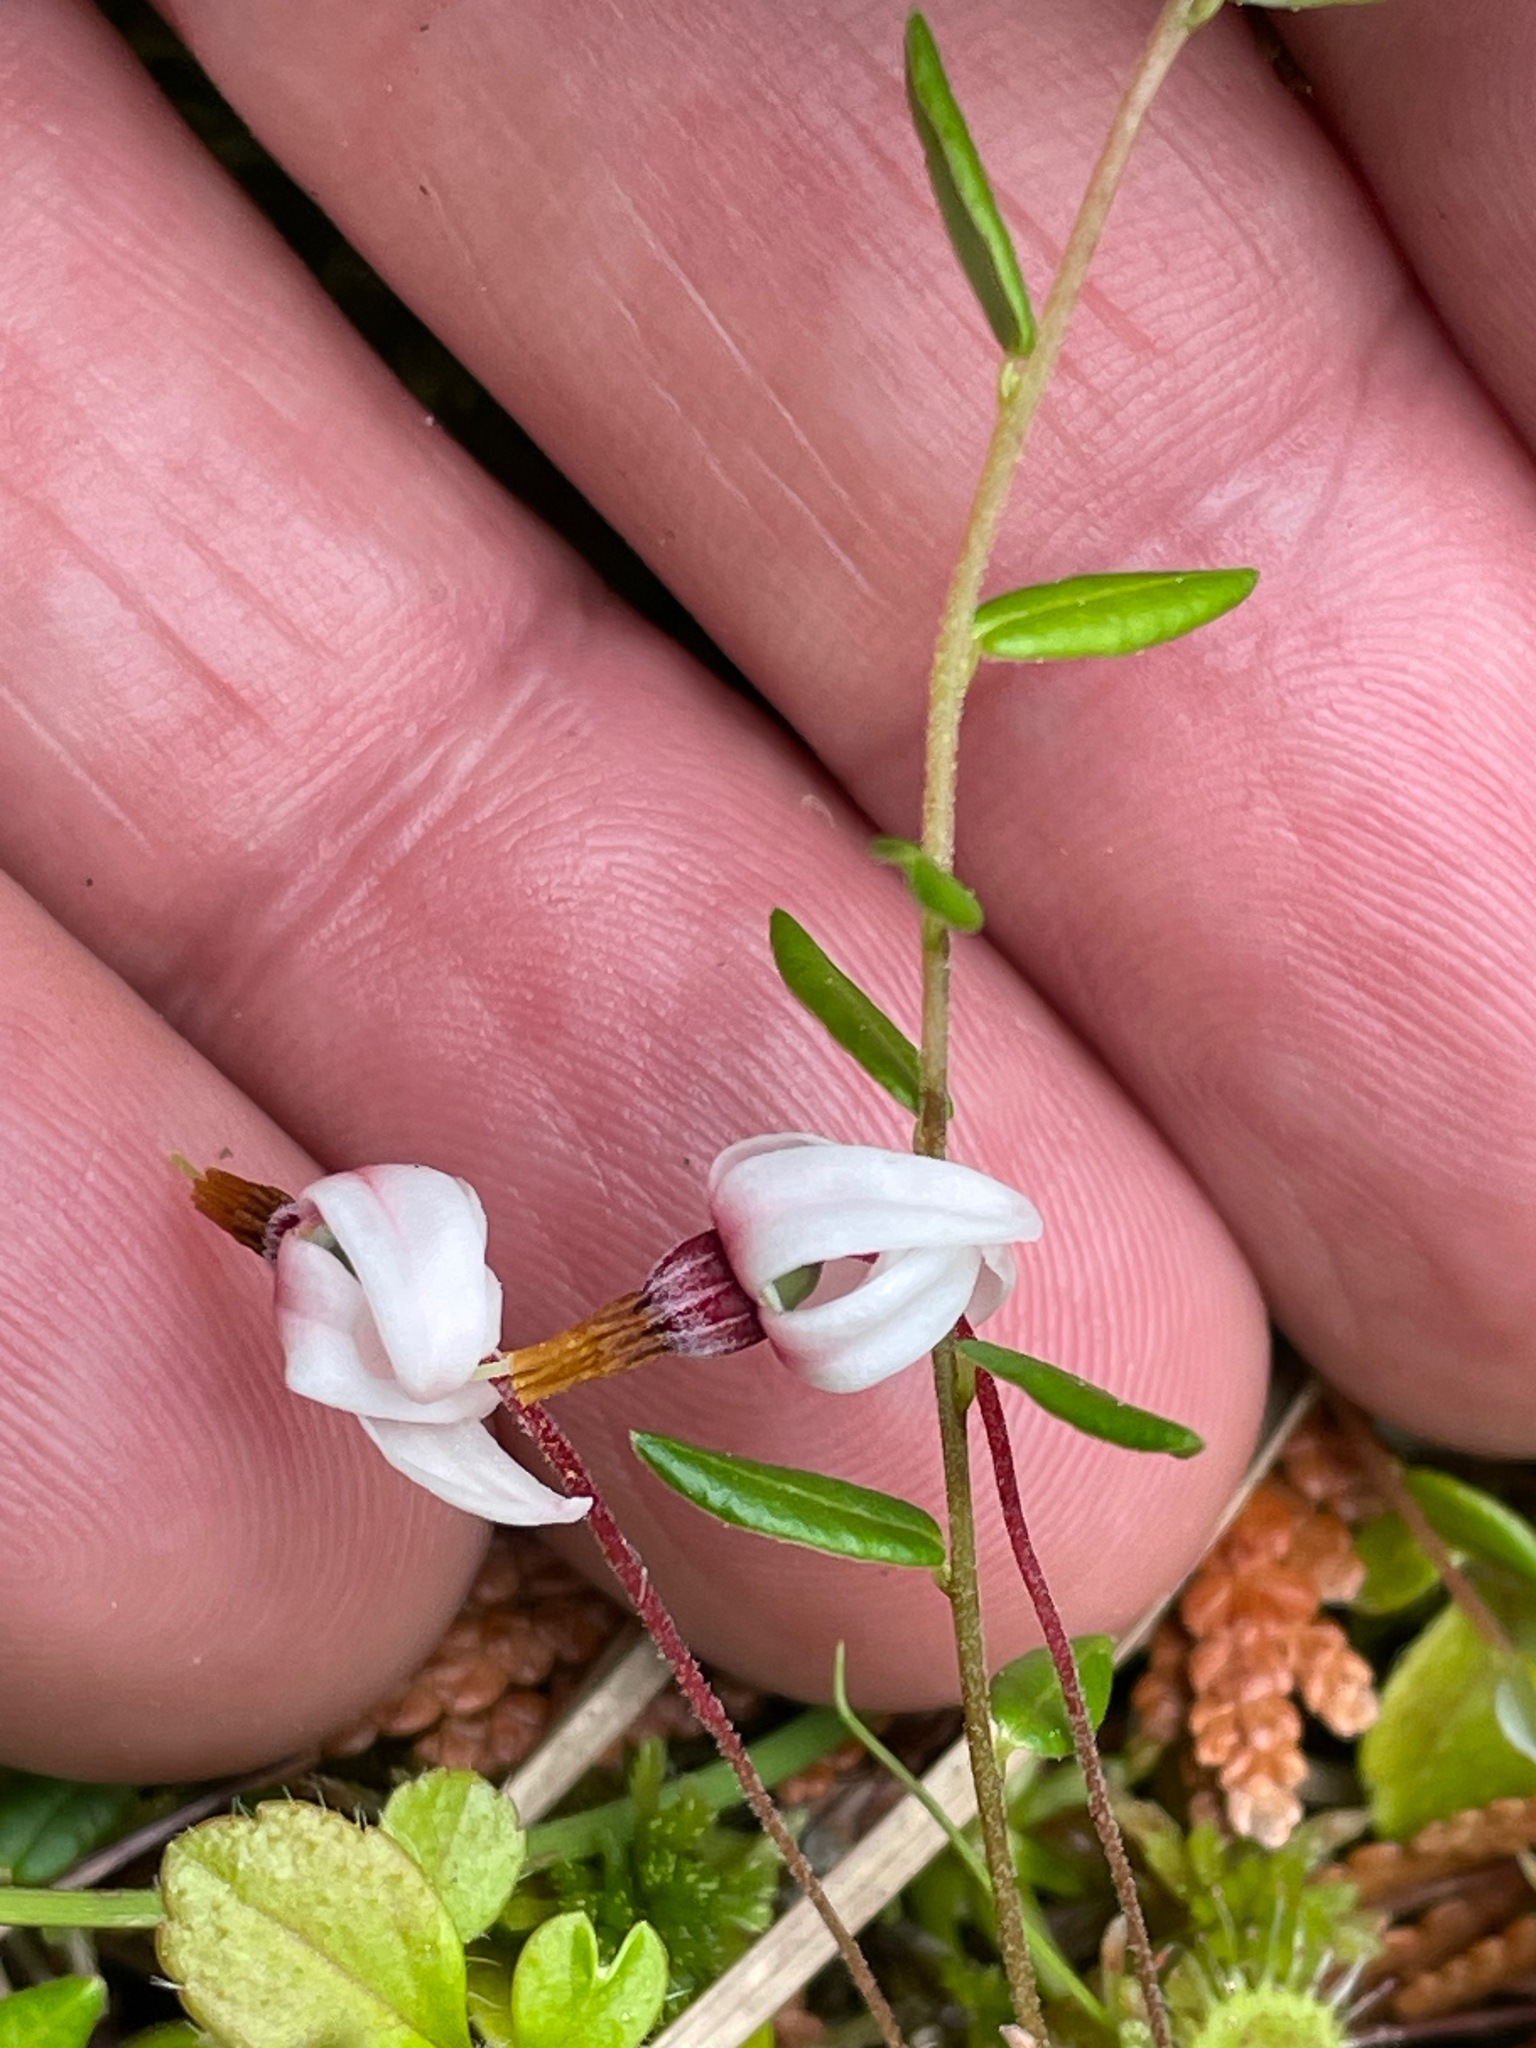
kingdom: Plantae
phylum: Tracheophyta
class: Magnoliopsida
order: Ericales
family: Ericaceae
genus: Vaccinium
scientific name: Vaccinium oxycoccos
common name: Cranberry
